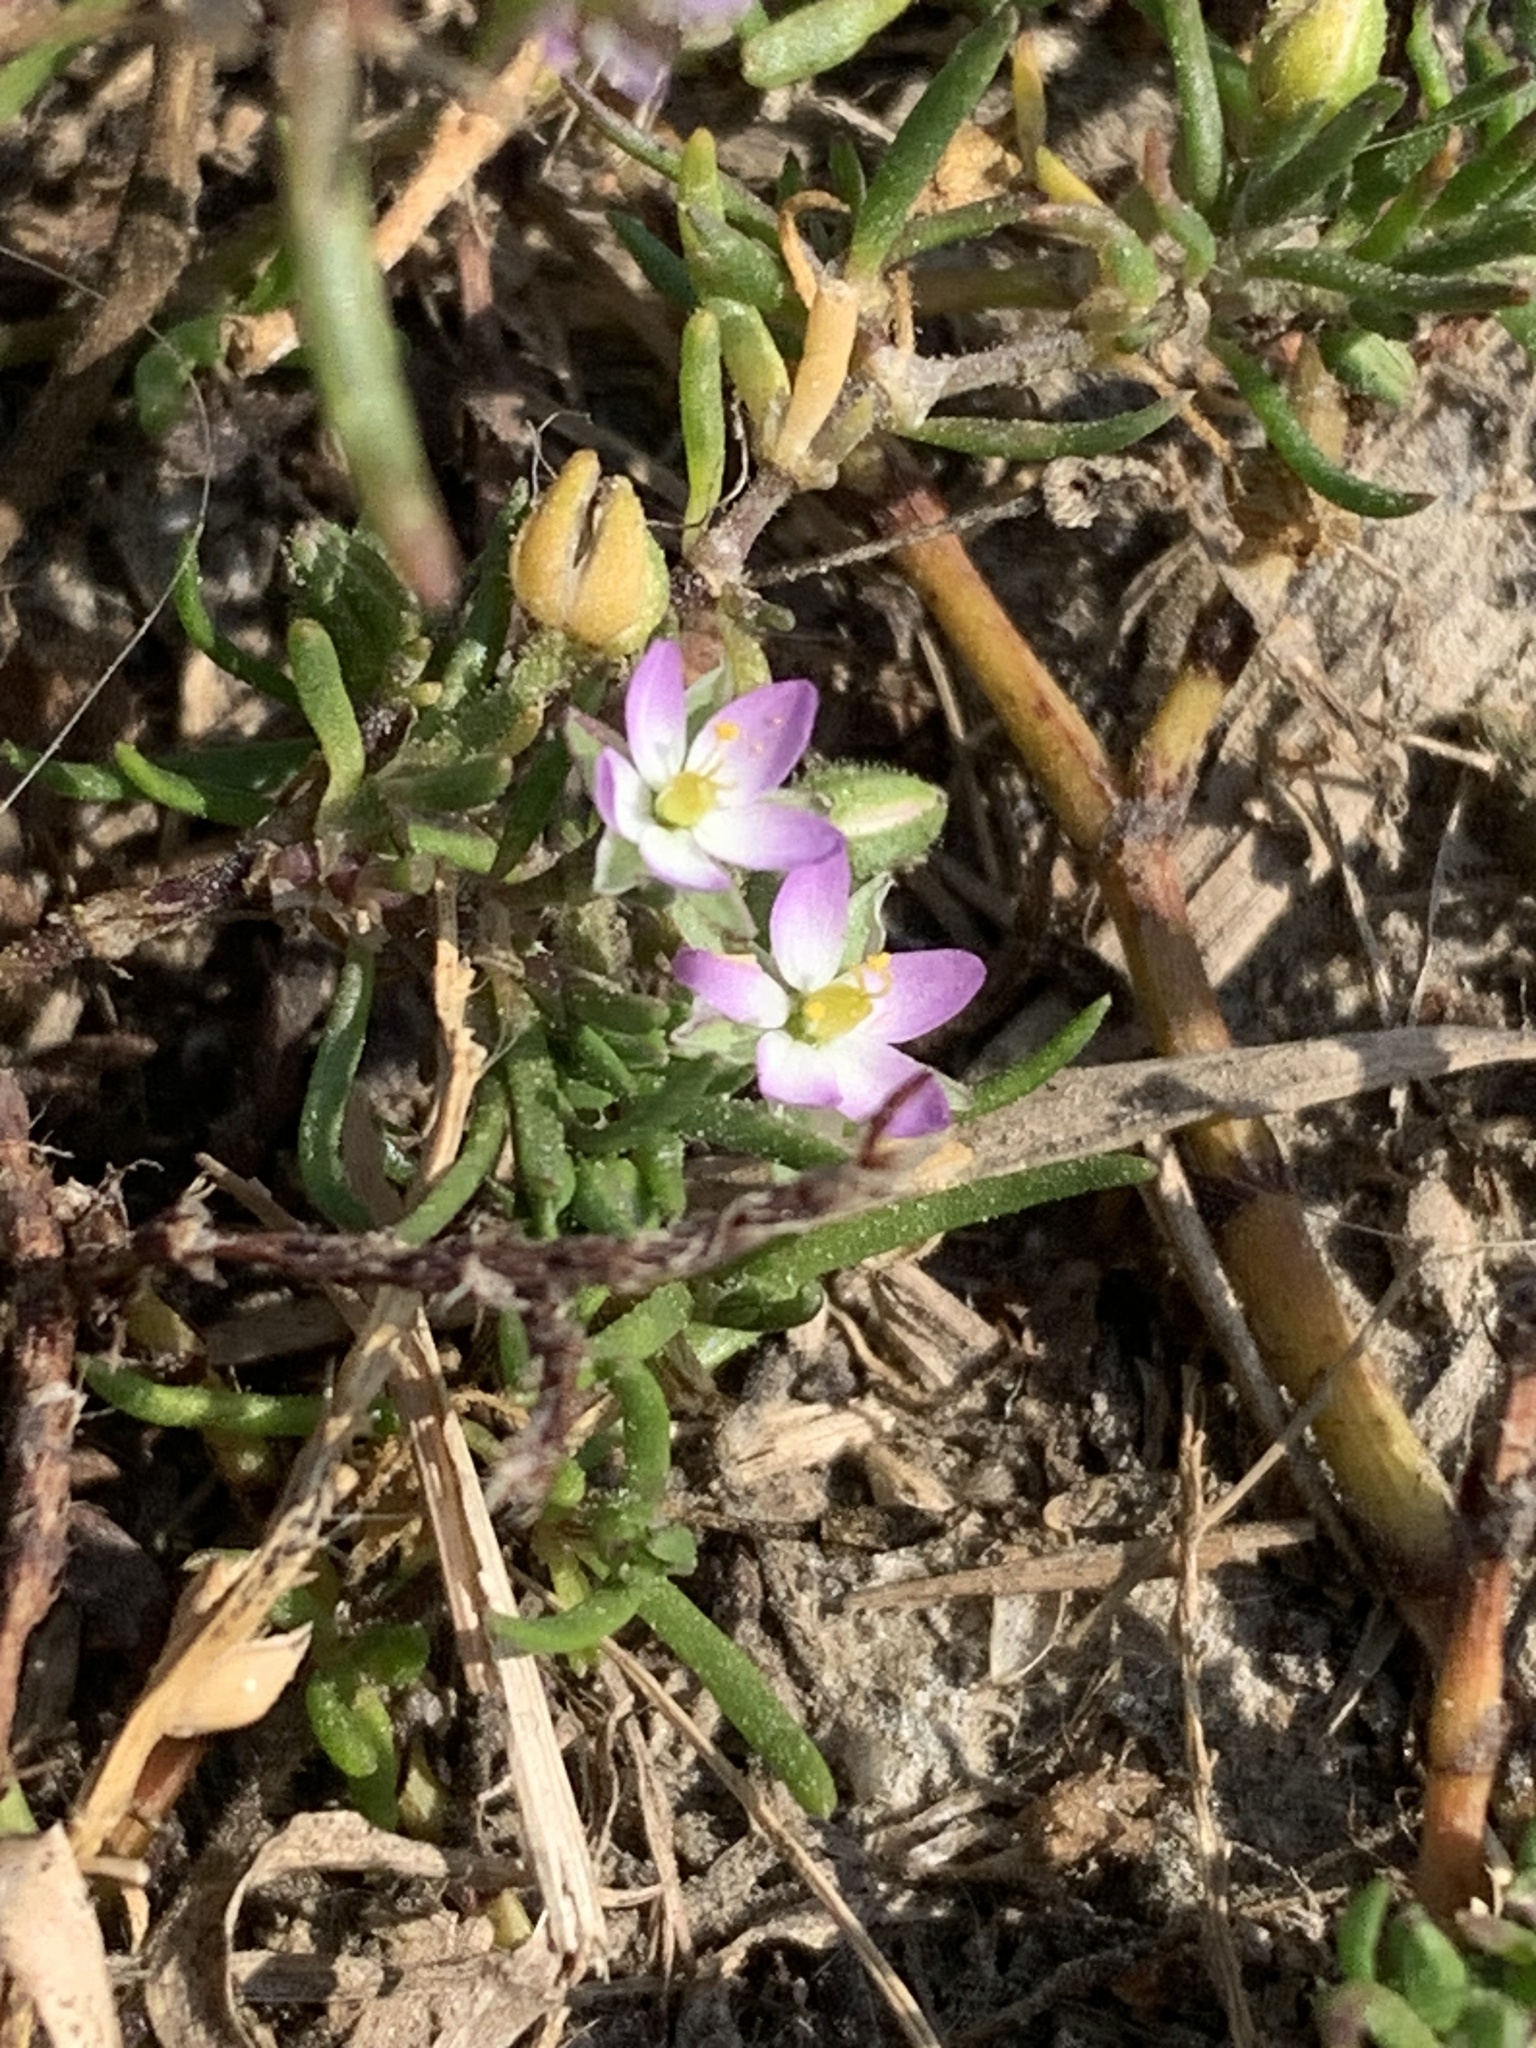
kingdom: Plantae
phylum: Tracheophyta
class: Magnoliopsida
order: Caryophyllales
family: Caryophyllaceae
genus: Spergularia
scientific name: Spergularia marina
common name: Lesser sea-spurrey
